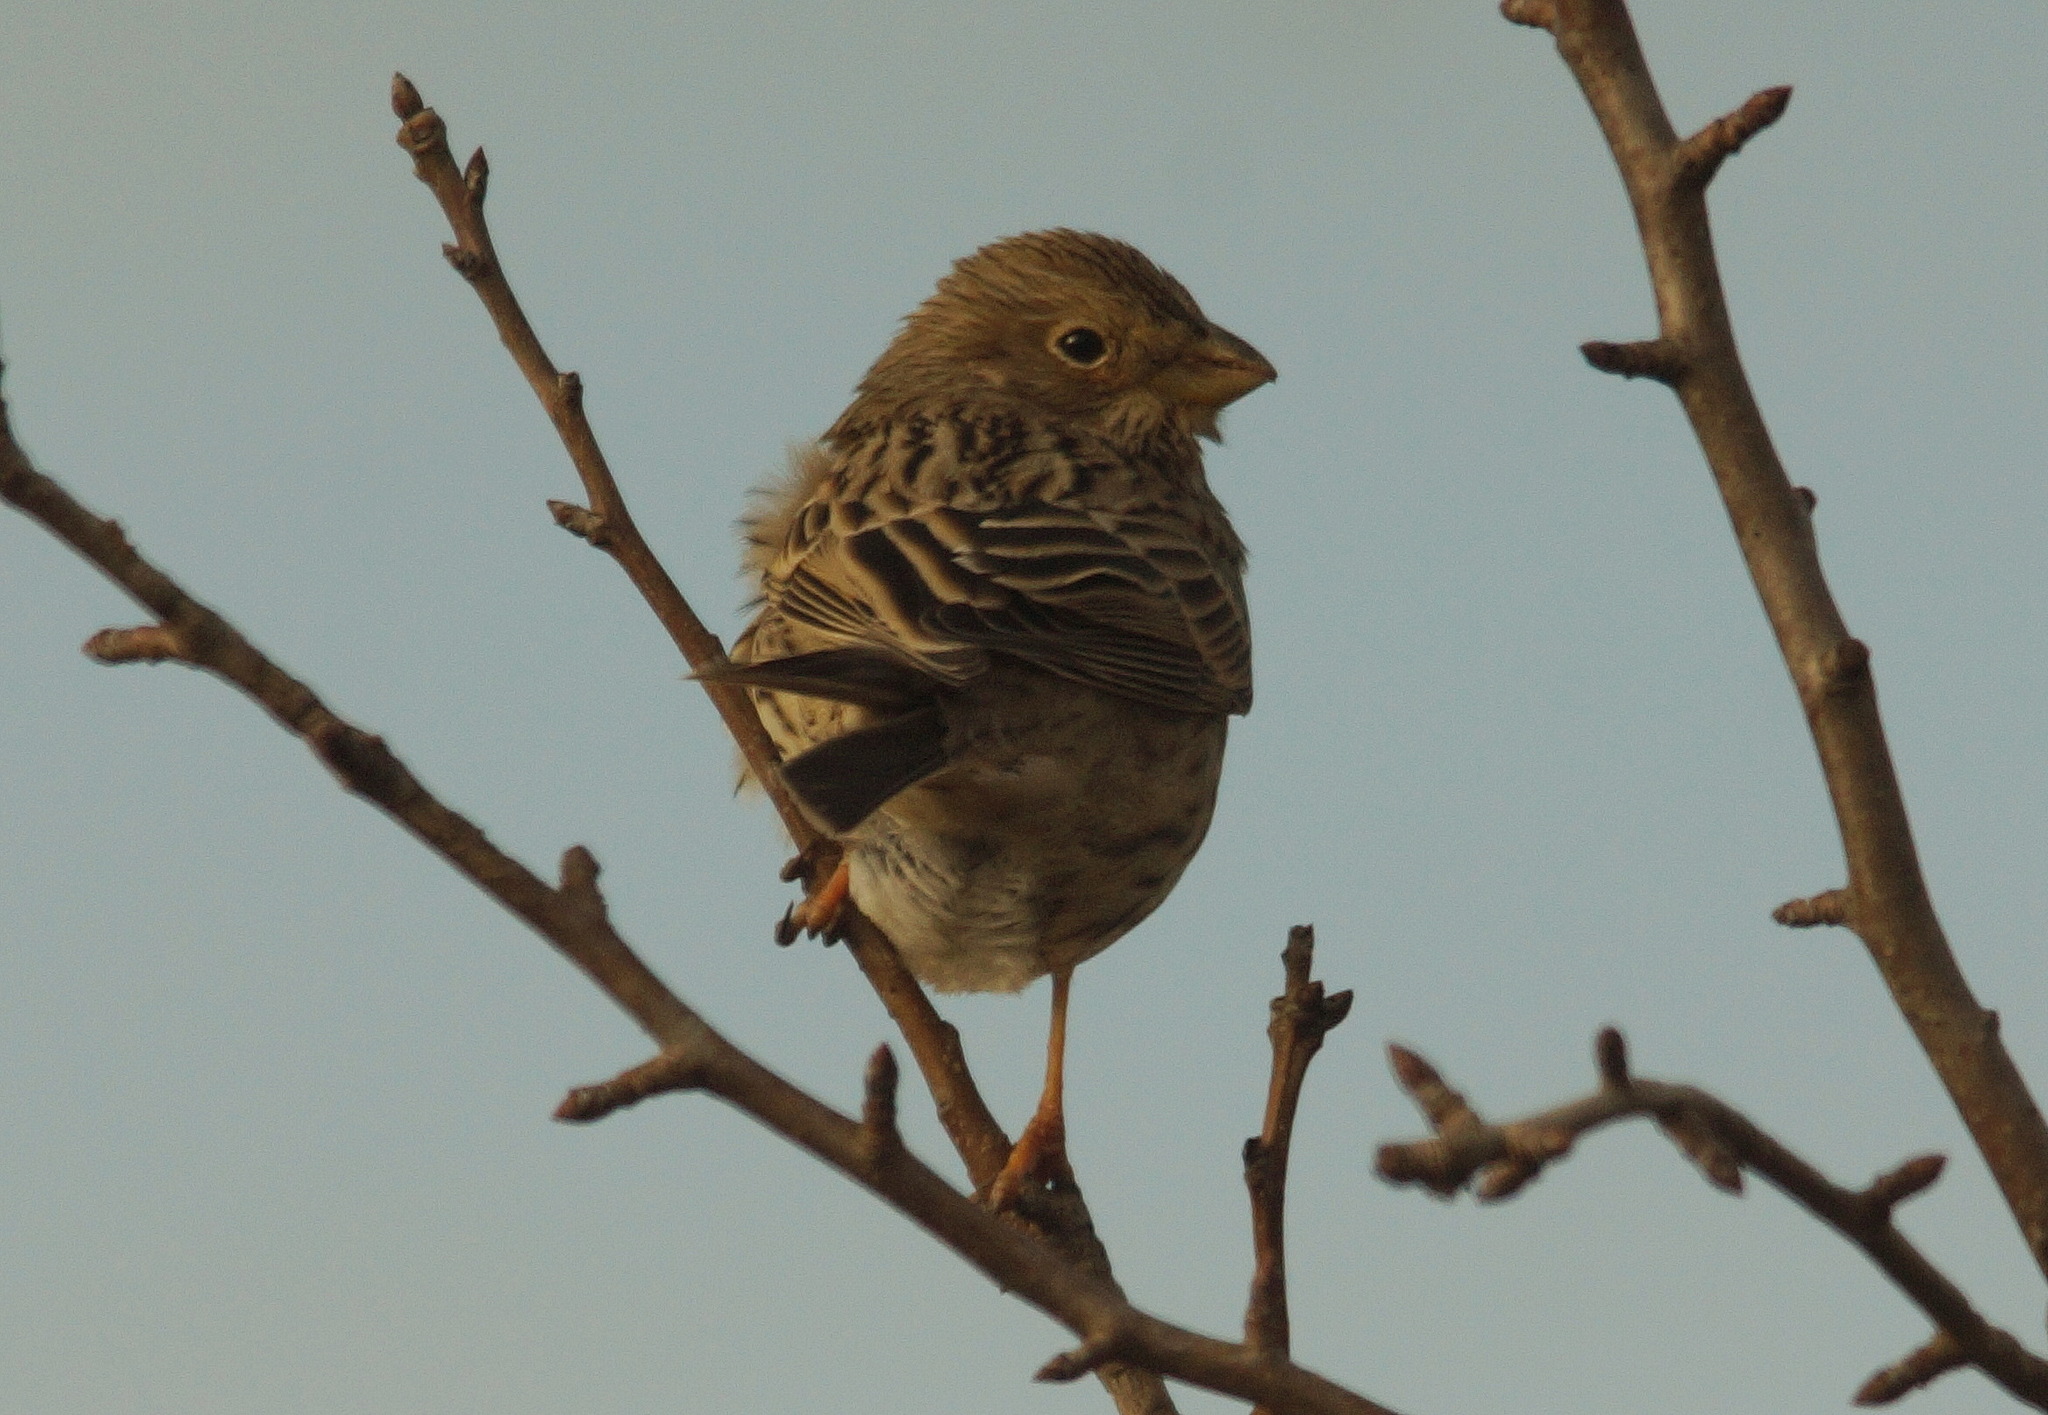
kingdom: Animalia
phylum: Chordata
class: Aves
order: Passeriformes
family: Emberizidae
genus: Emberiza
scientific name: Emberiza calandra
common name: Corn bunting
